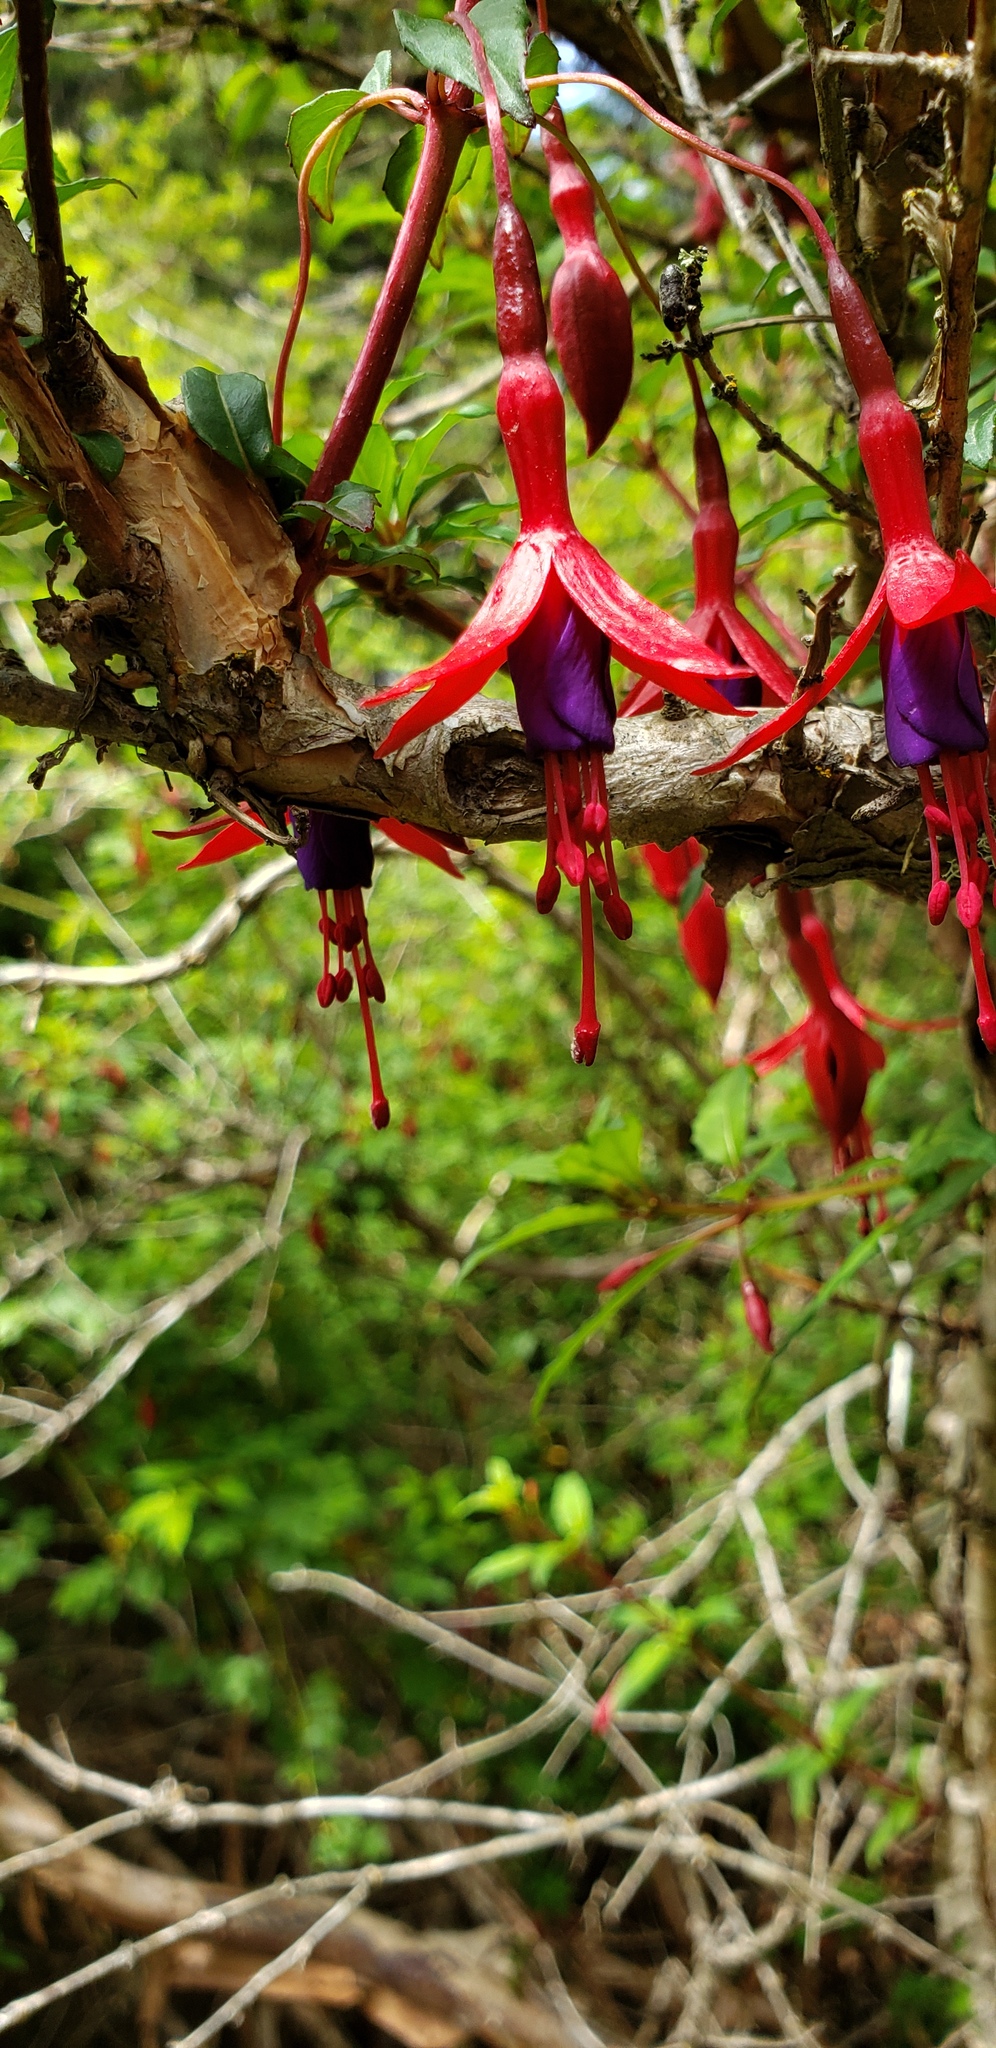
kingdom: Plantae
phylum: Tracheophyta
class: Magnoliopsida
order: Myrtales
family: Onagraceae
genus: Fuchsia
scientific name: Fuchsia magellanica
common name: Hardy fuchsia
